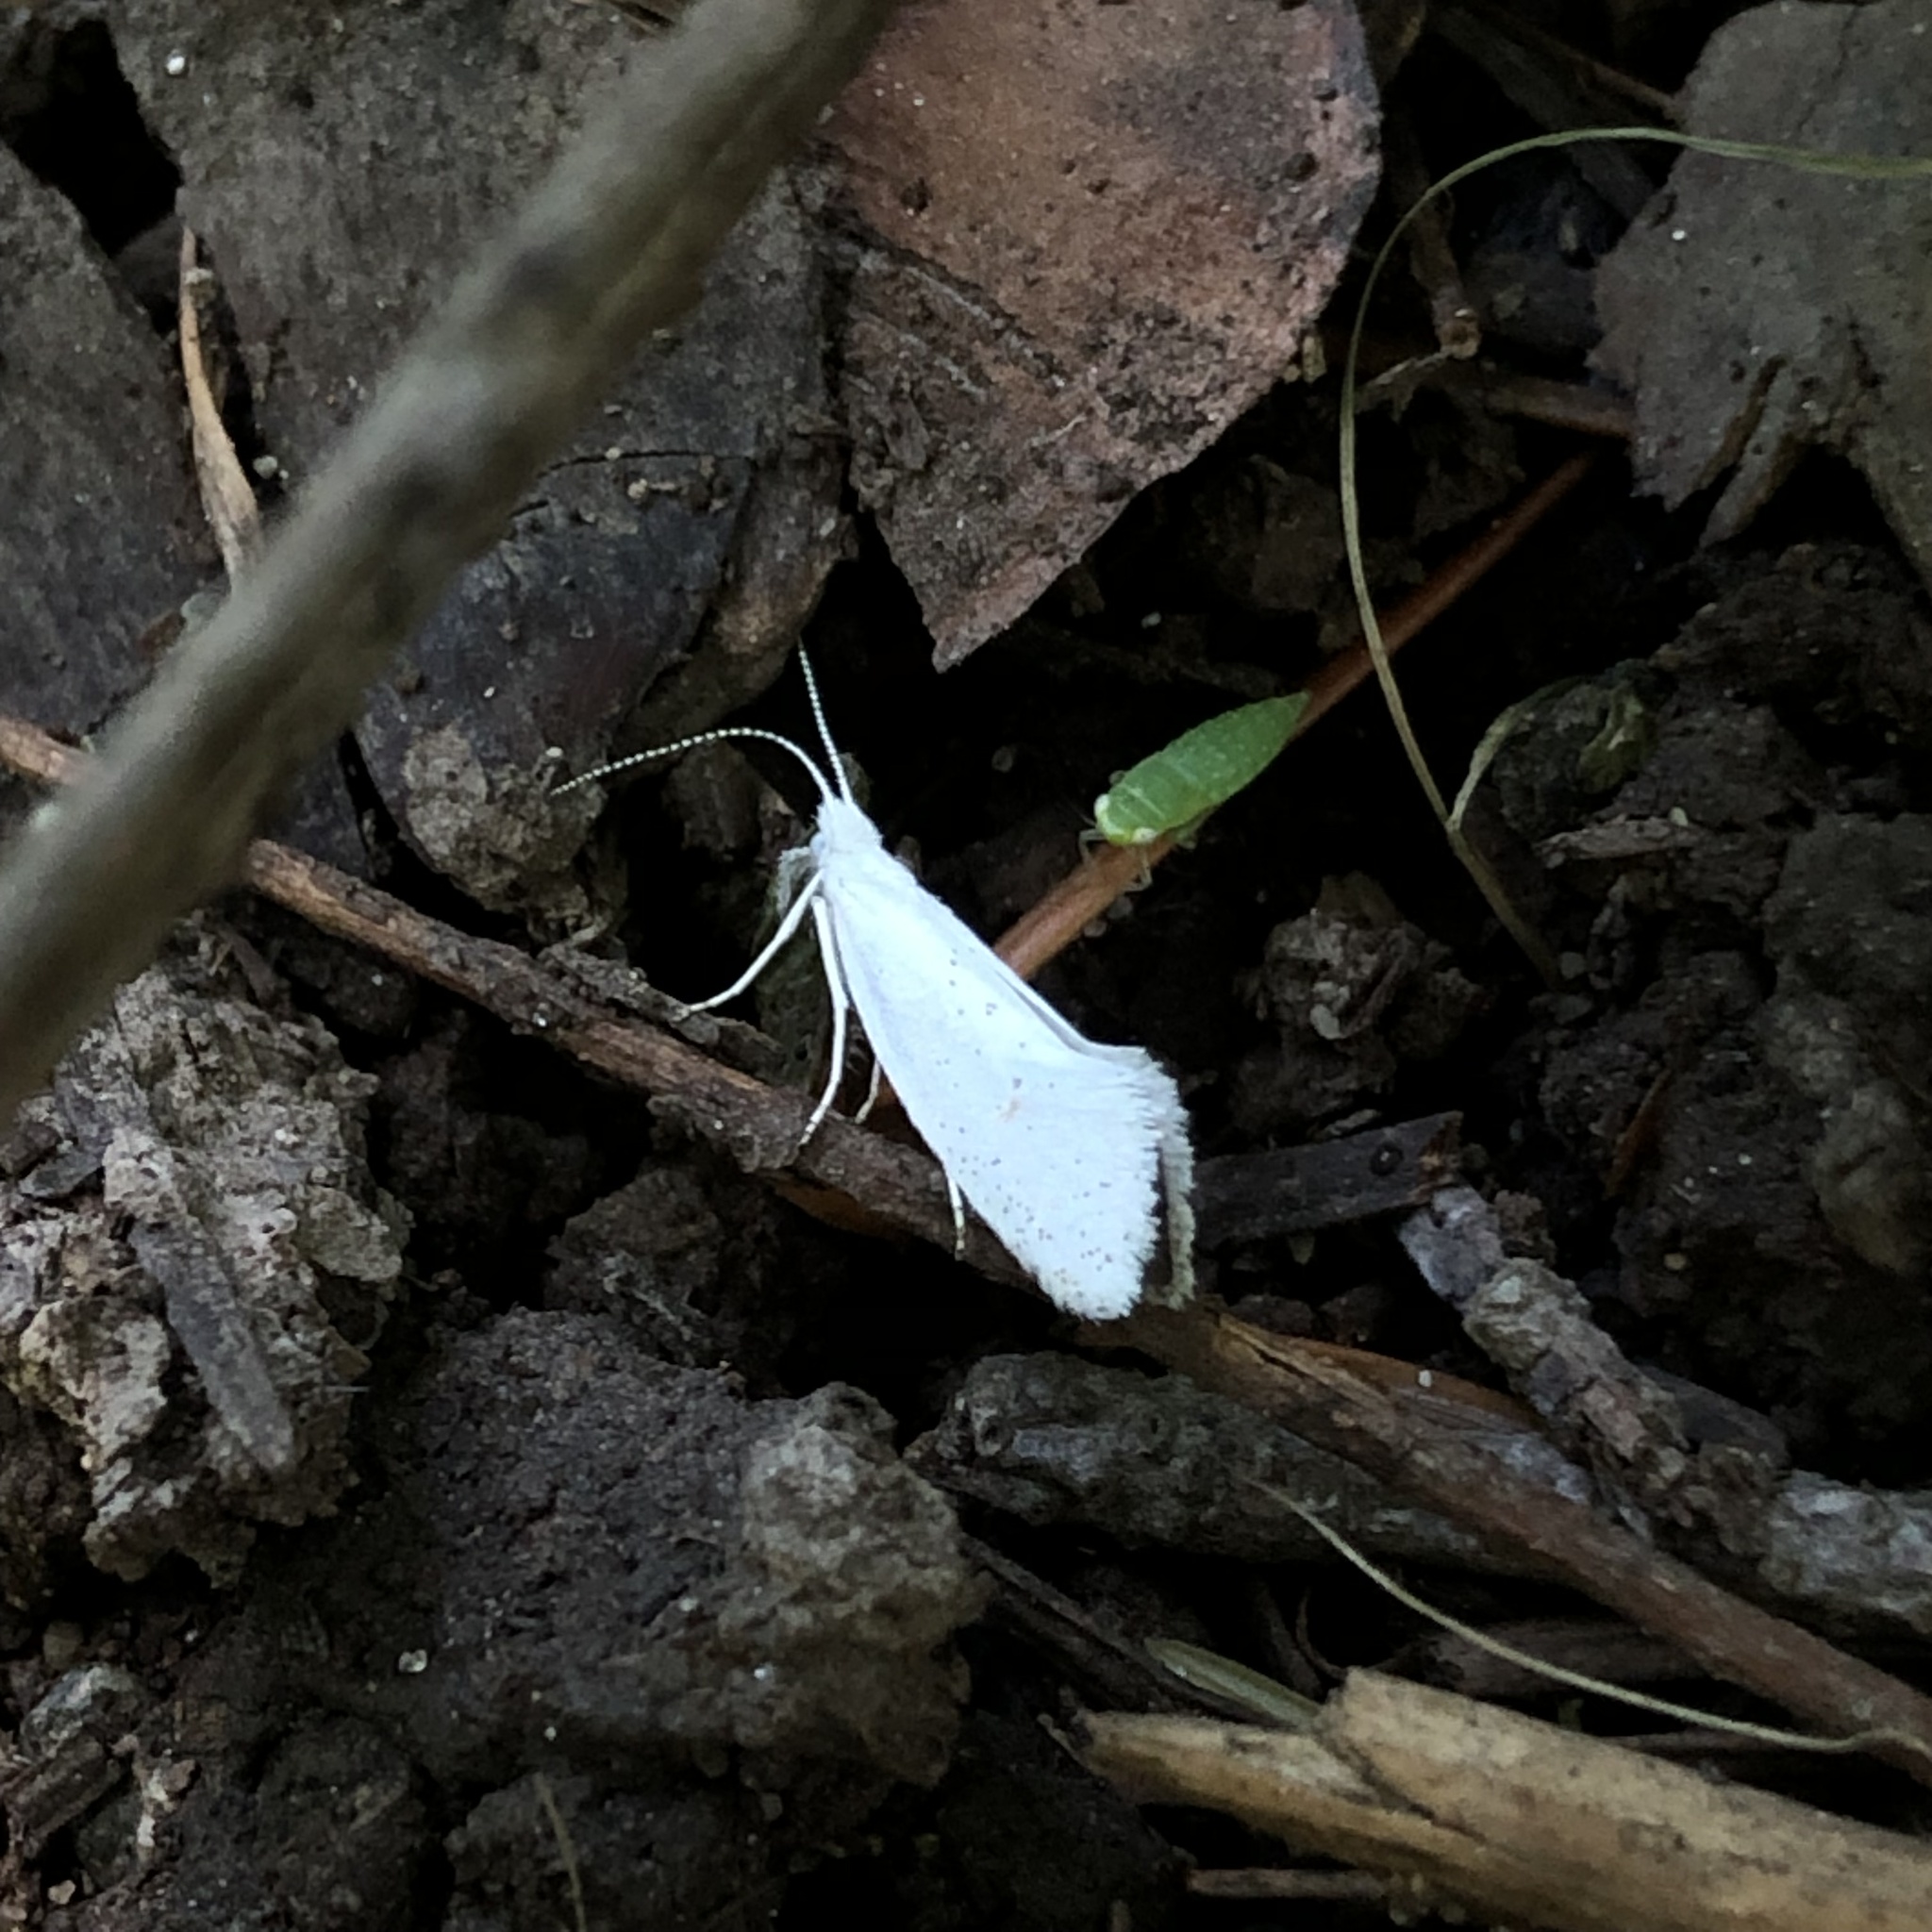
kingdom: Animalia
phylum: Arthropoda
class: Insecta
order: Lepidoptera
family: Ypsolophidae
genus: Euceratia
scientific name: Euceratia castella
